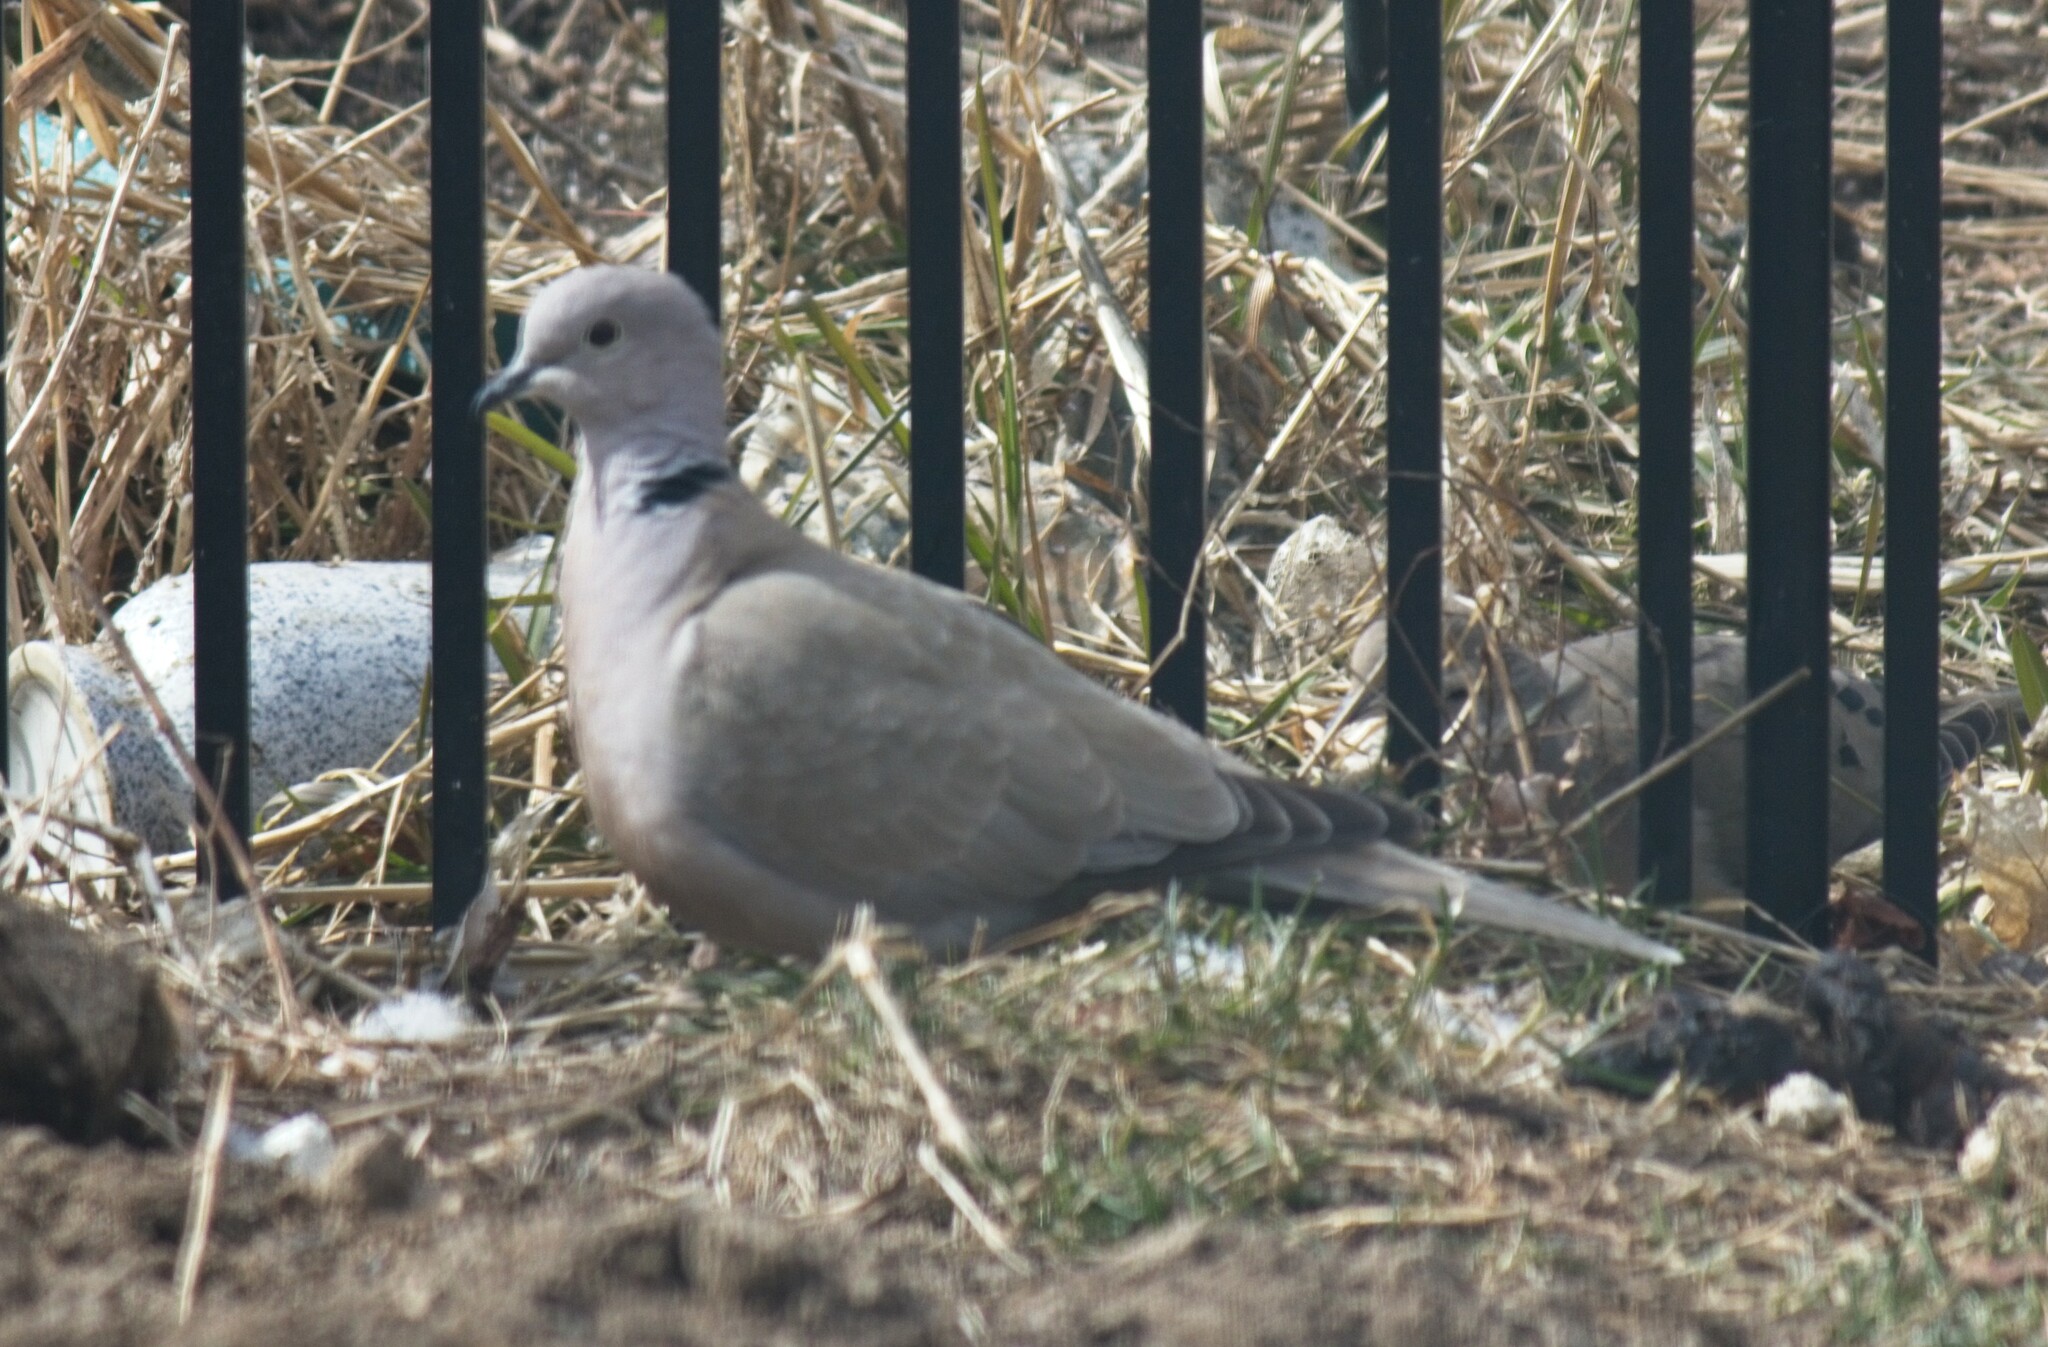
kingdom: Animalia
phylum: Chordata
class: Aves
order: Columbiformes
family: Columbidae
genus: Streptopelia
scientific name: Streptopelia decaocto
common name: Eurasian collared dove
